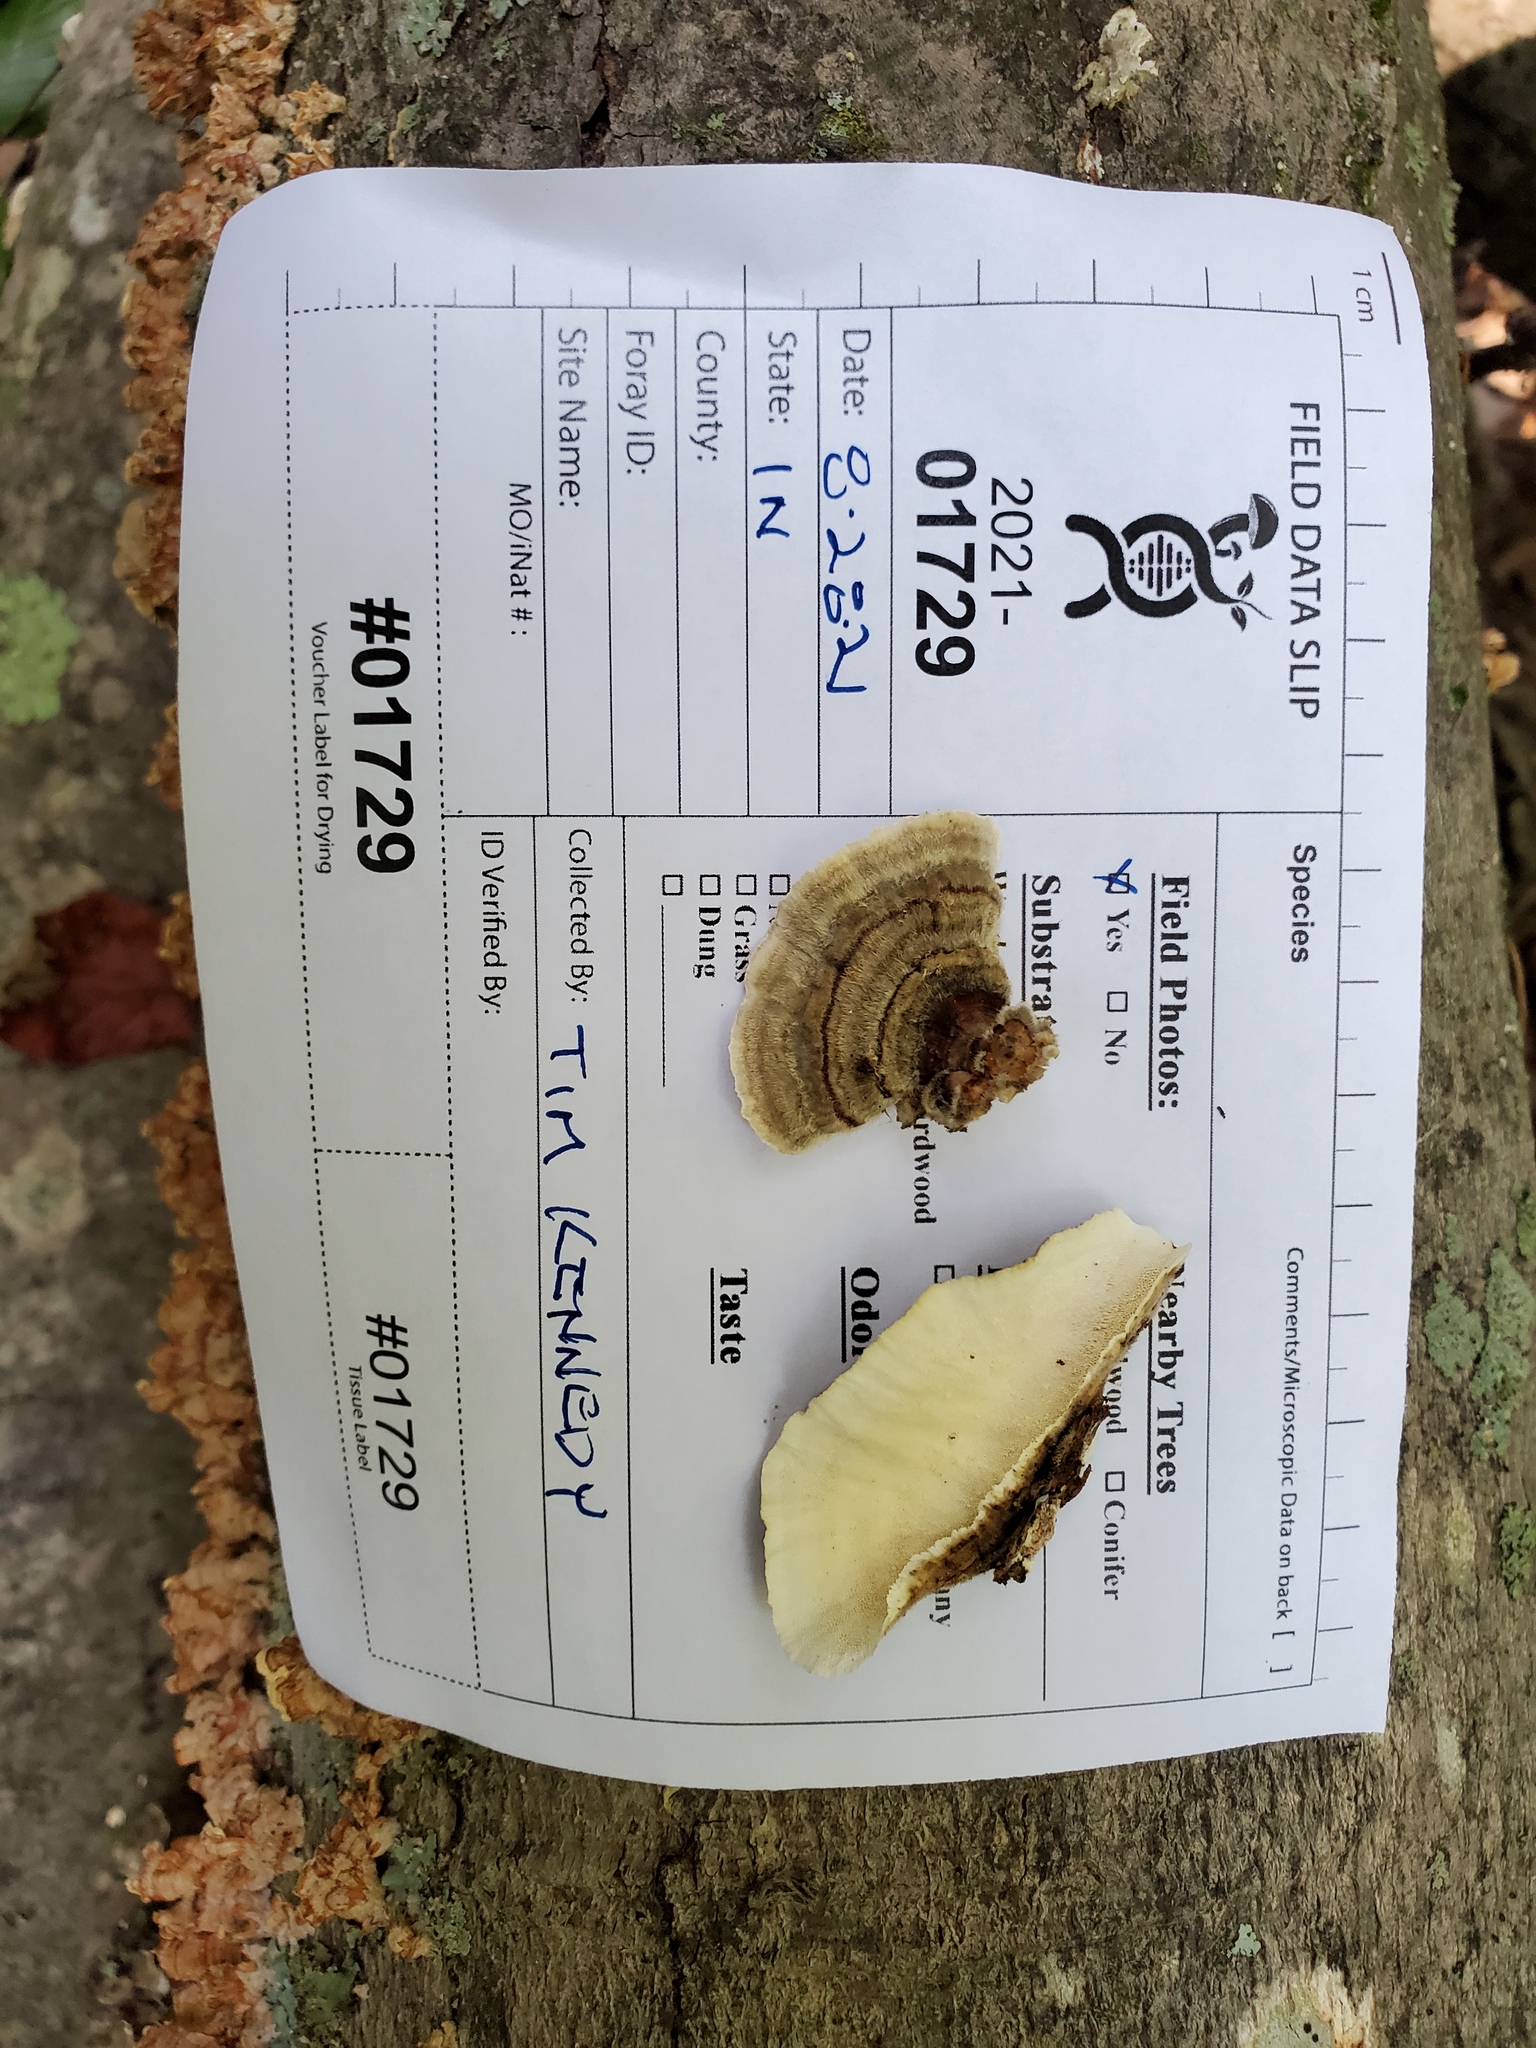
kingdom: Fungi
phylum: Basidiomycota
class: Agaricomycetes
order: Polyporales
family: Polyporaceae
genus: Trametes
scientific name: Trametes versicolor
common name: Turkeytail
